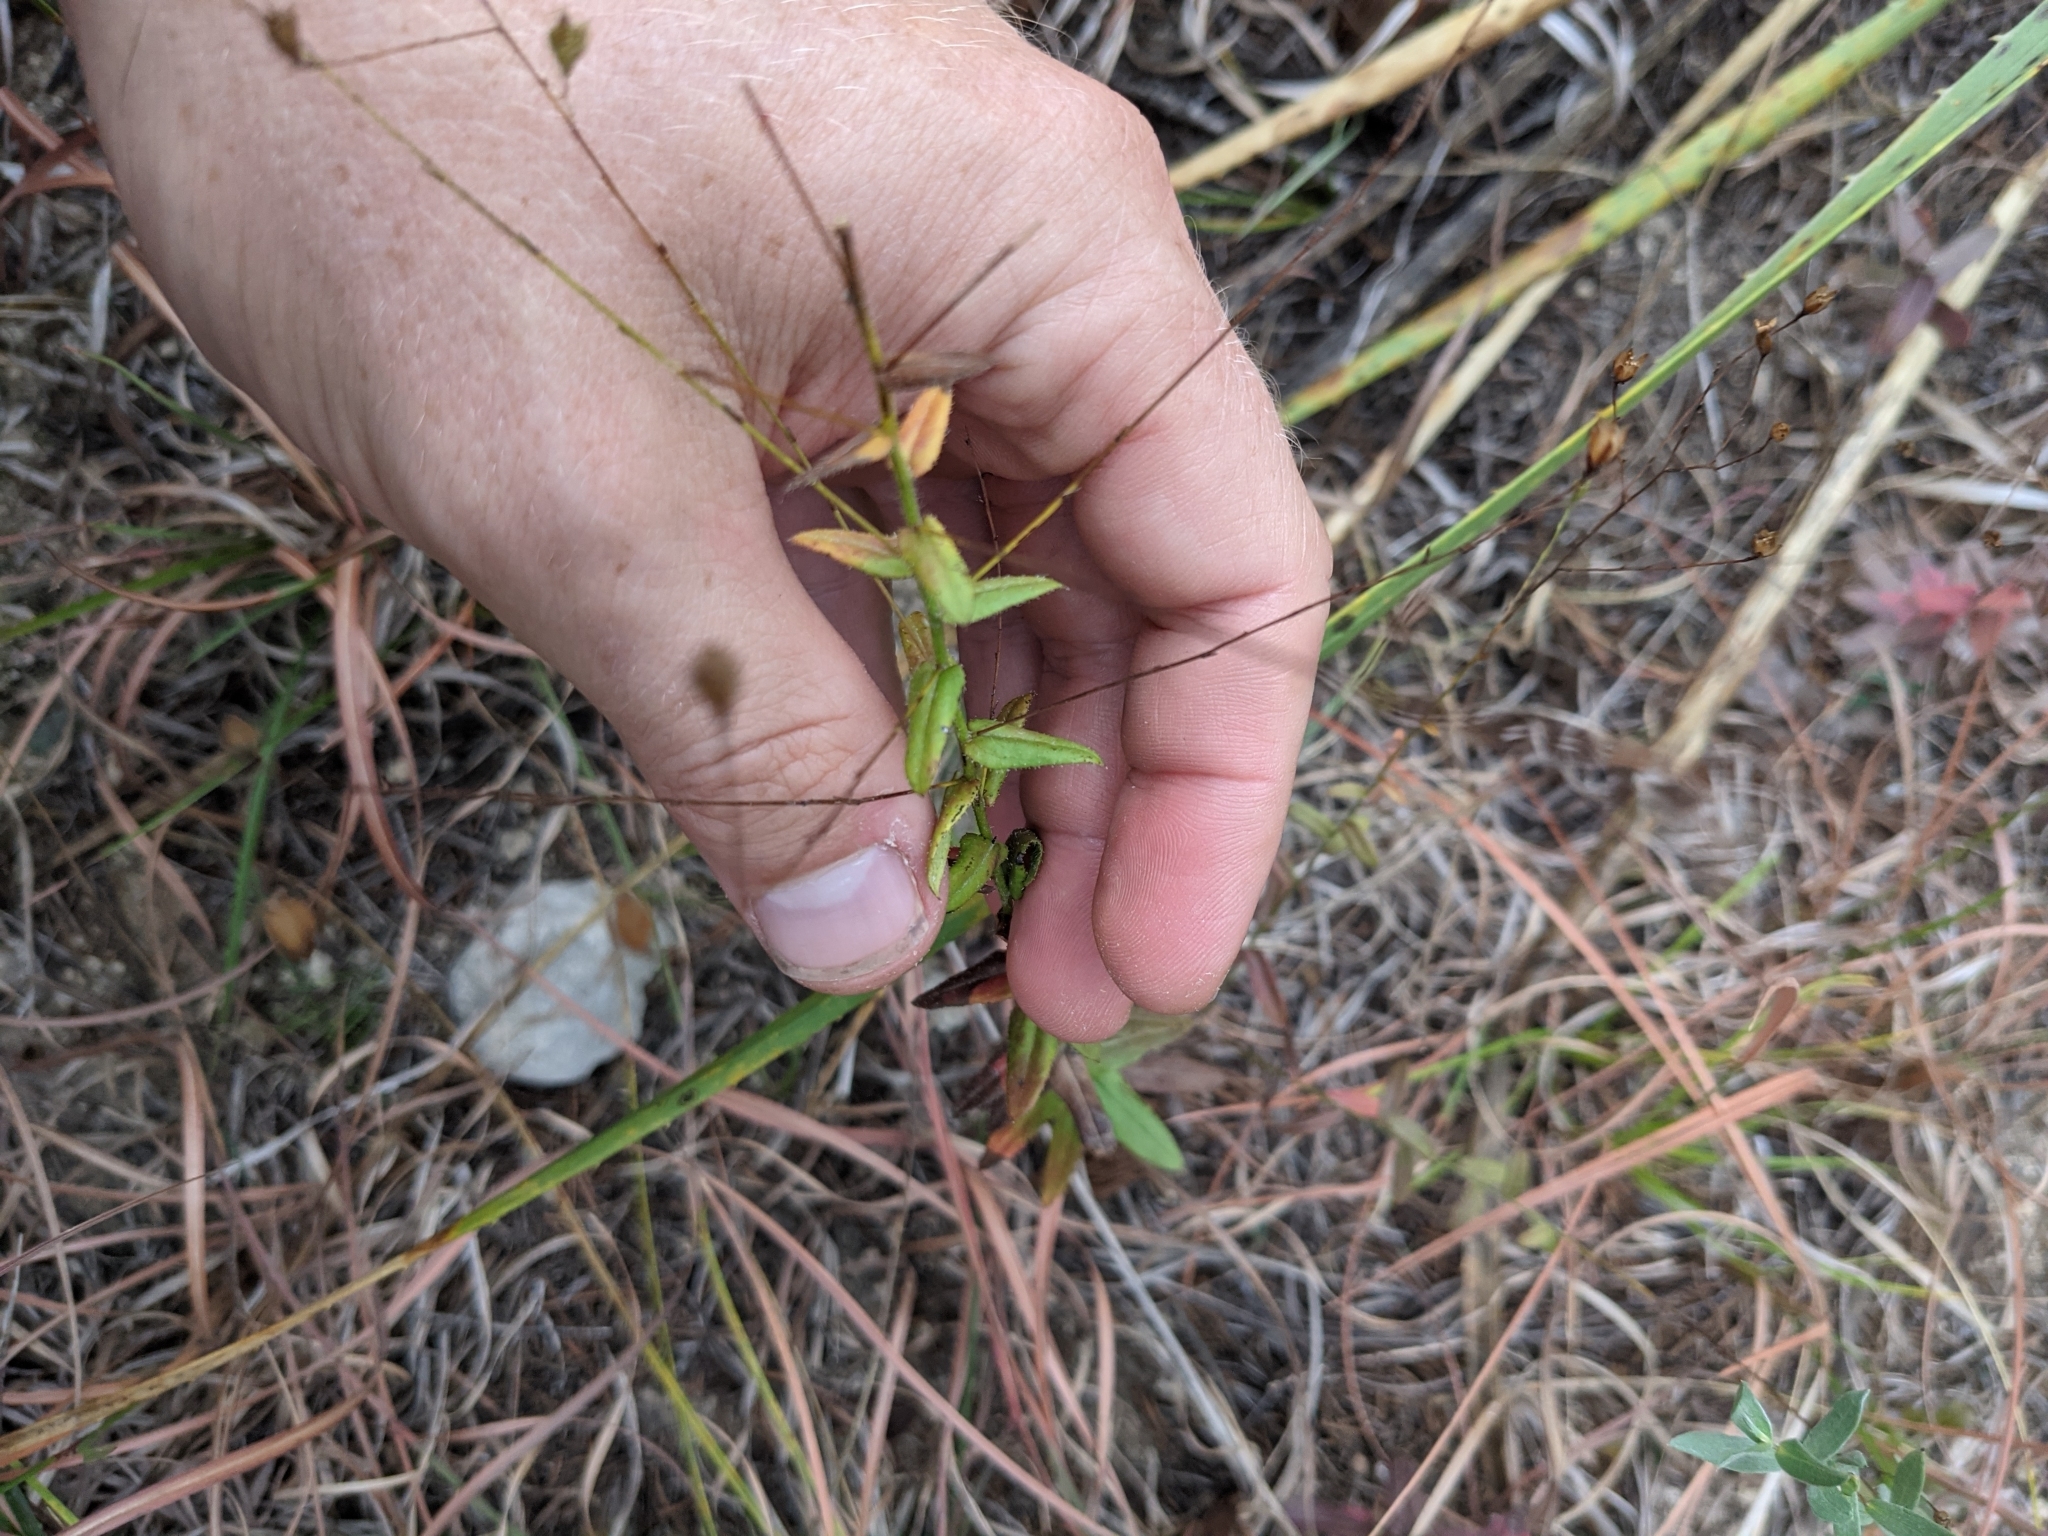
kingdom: Plantae
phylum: Tracheophyta
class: Magnoliopsida
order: Asterales
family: Asteraceae
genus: Chaetopappa
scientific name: Chaetopappa effusa
